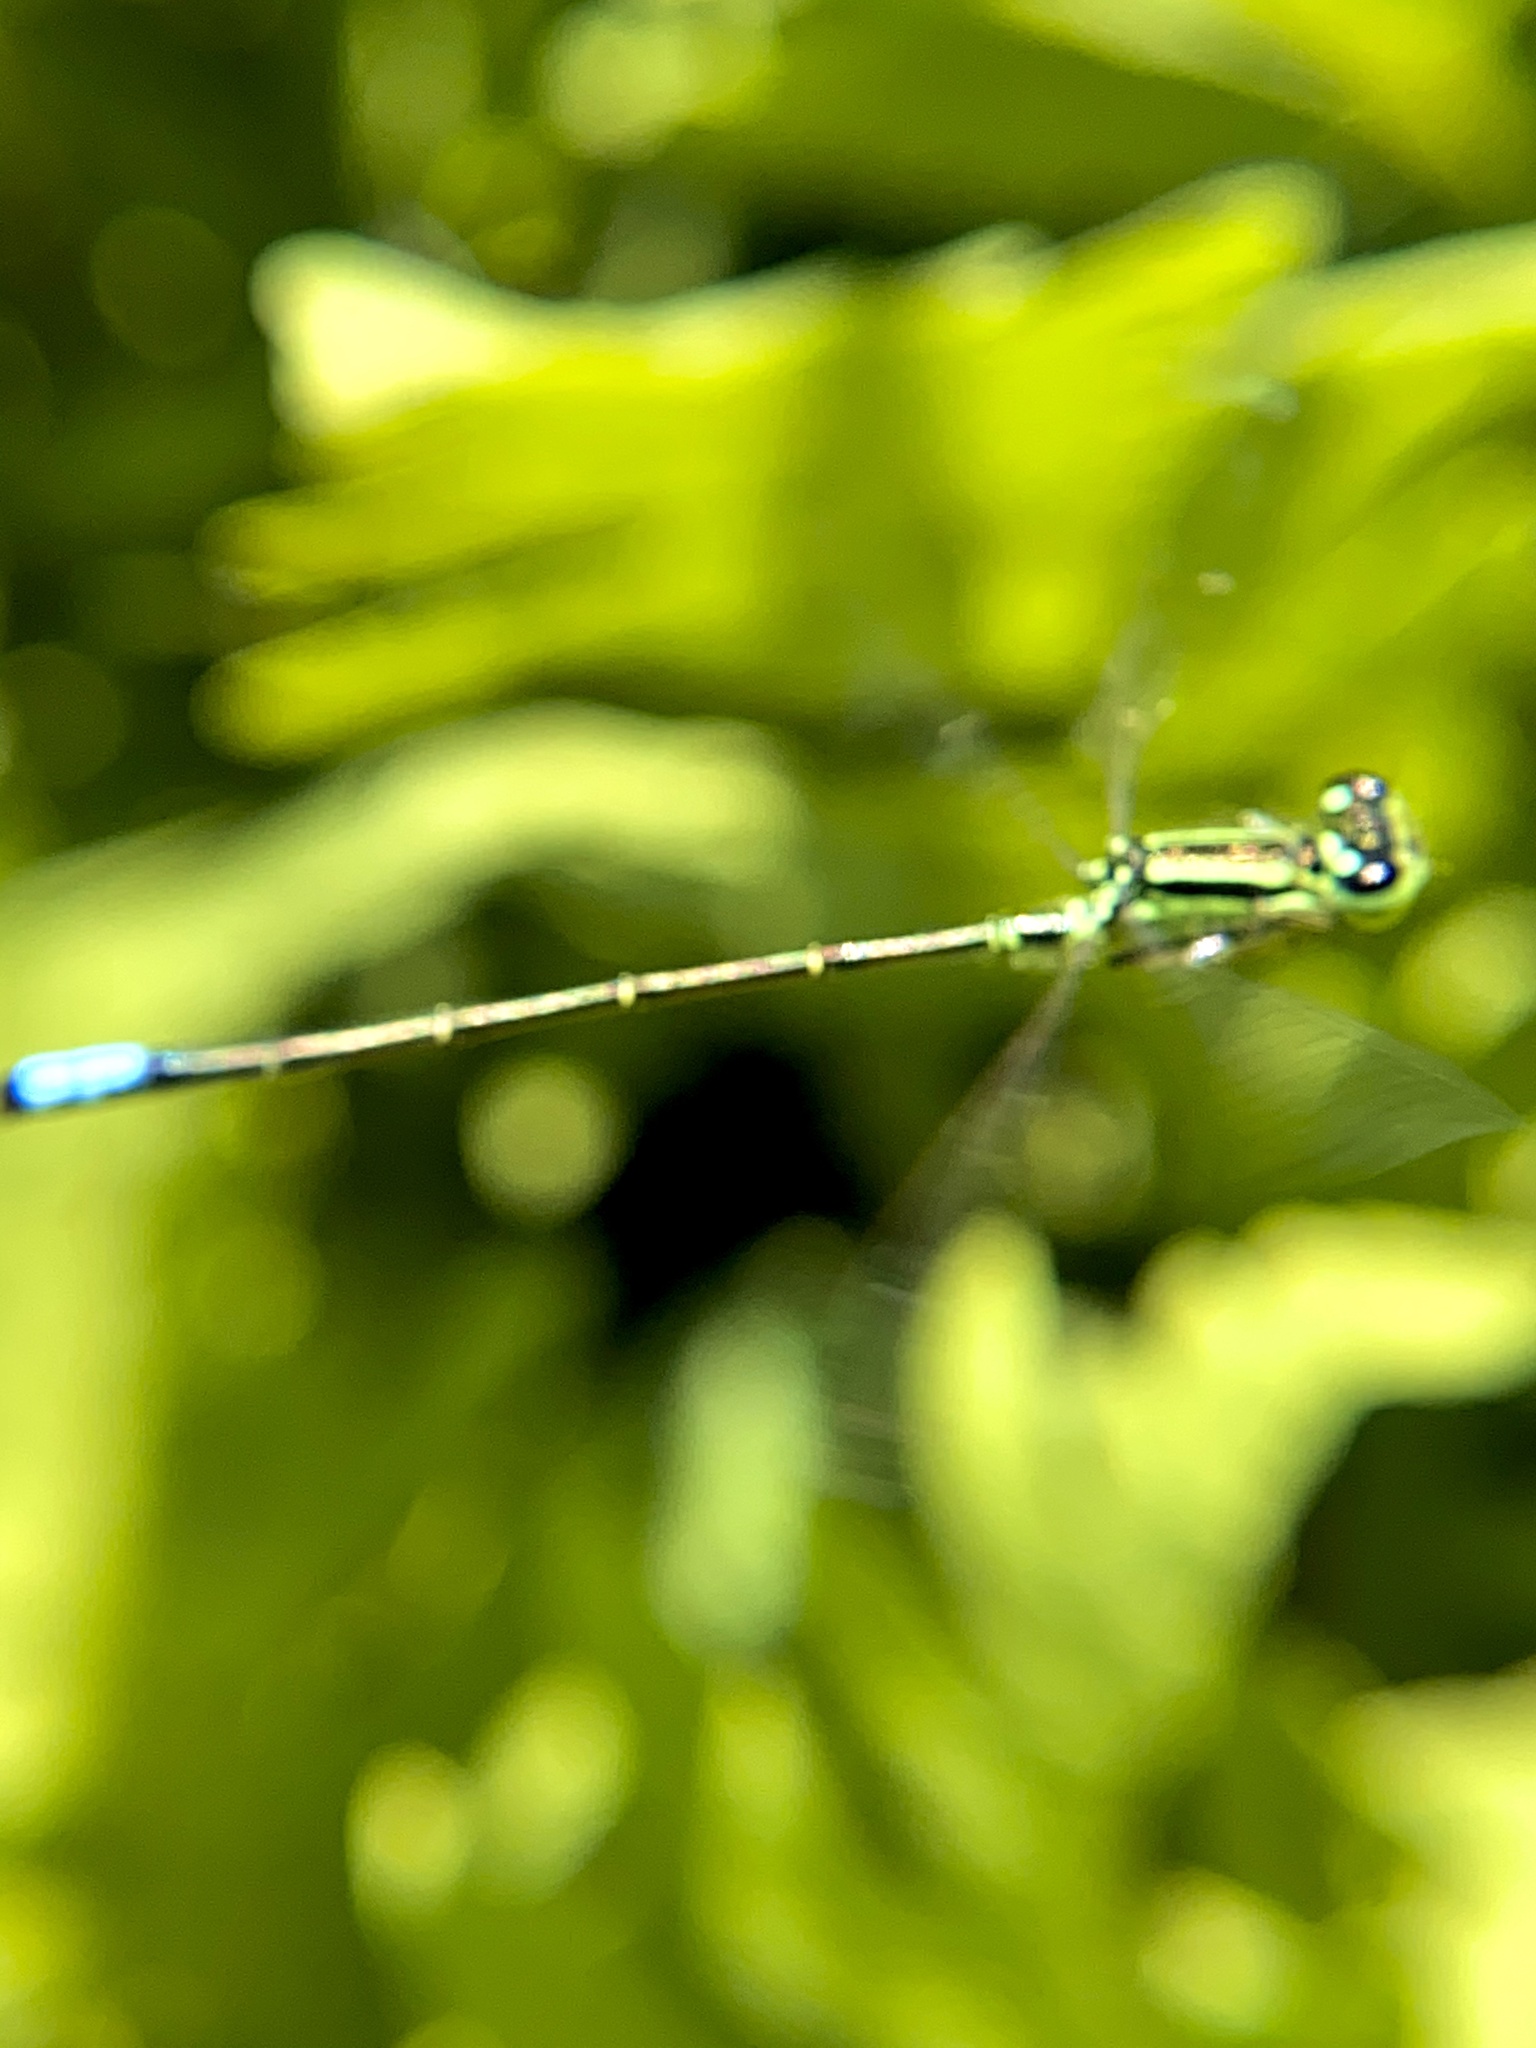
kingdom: Animalia
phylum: Arthropoda
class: Insecta
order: Odonata
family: Coenagrionidae
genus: Ischnura
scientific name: Ischnura verticalis
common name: Eastern forktail
